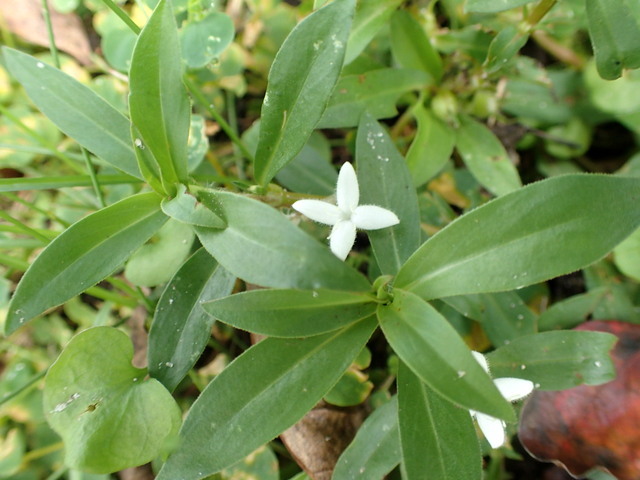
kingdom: Plantae
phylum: Tracheophyta
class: Magnoliopsida
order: Gentianales
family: Rubiaceae
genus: Diodia
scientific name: Diodia virginiana
